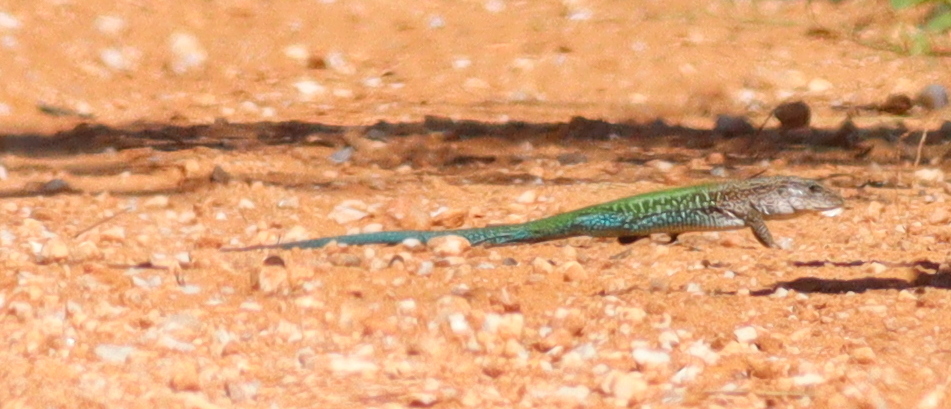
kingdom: Animalia
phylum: Chordata
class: Squamata
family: Teiidae
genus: Ameiva
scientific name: Ameiva ameiva
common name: Giant ameiva
